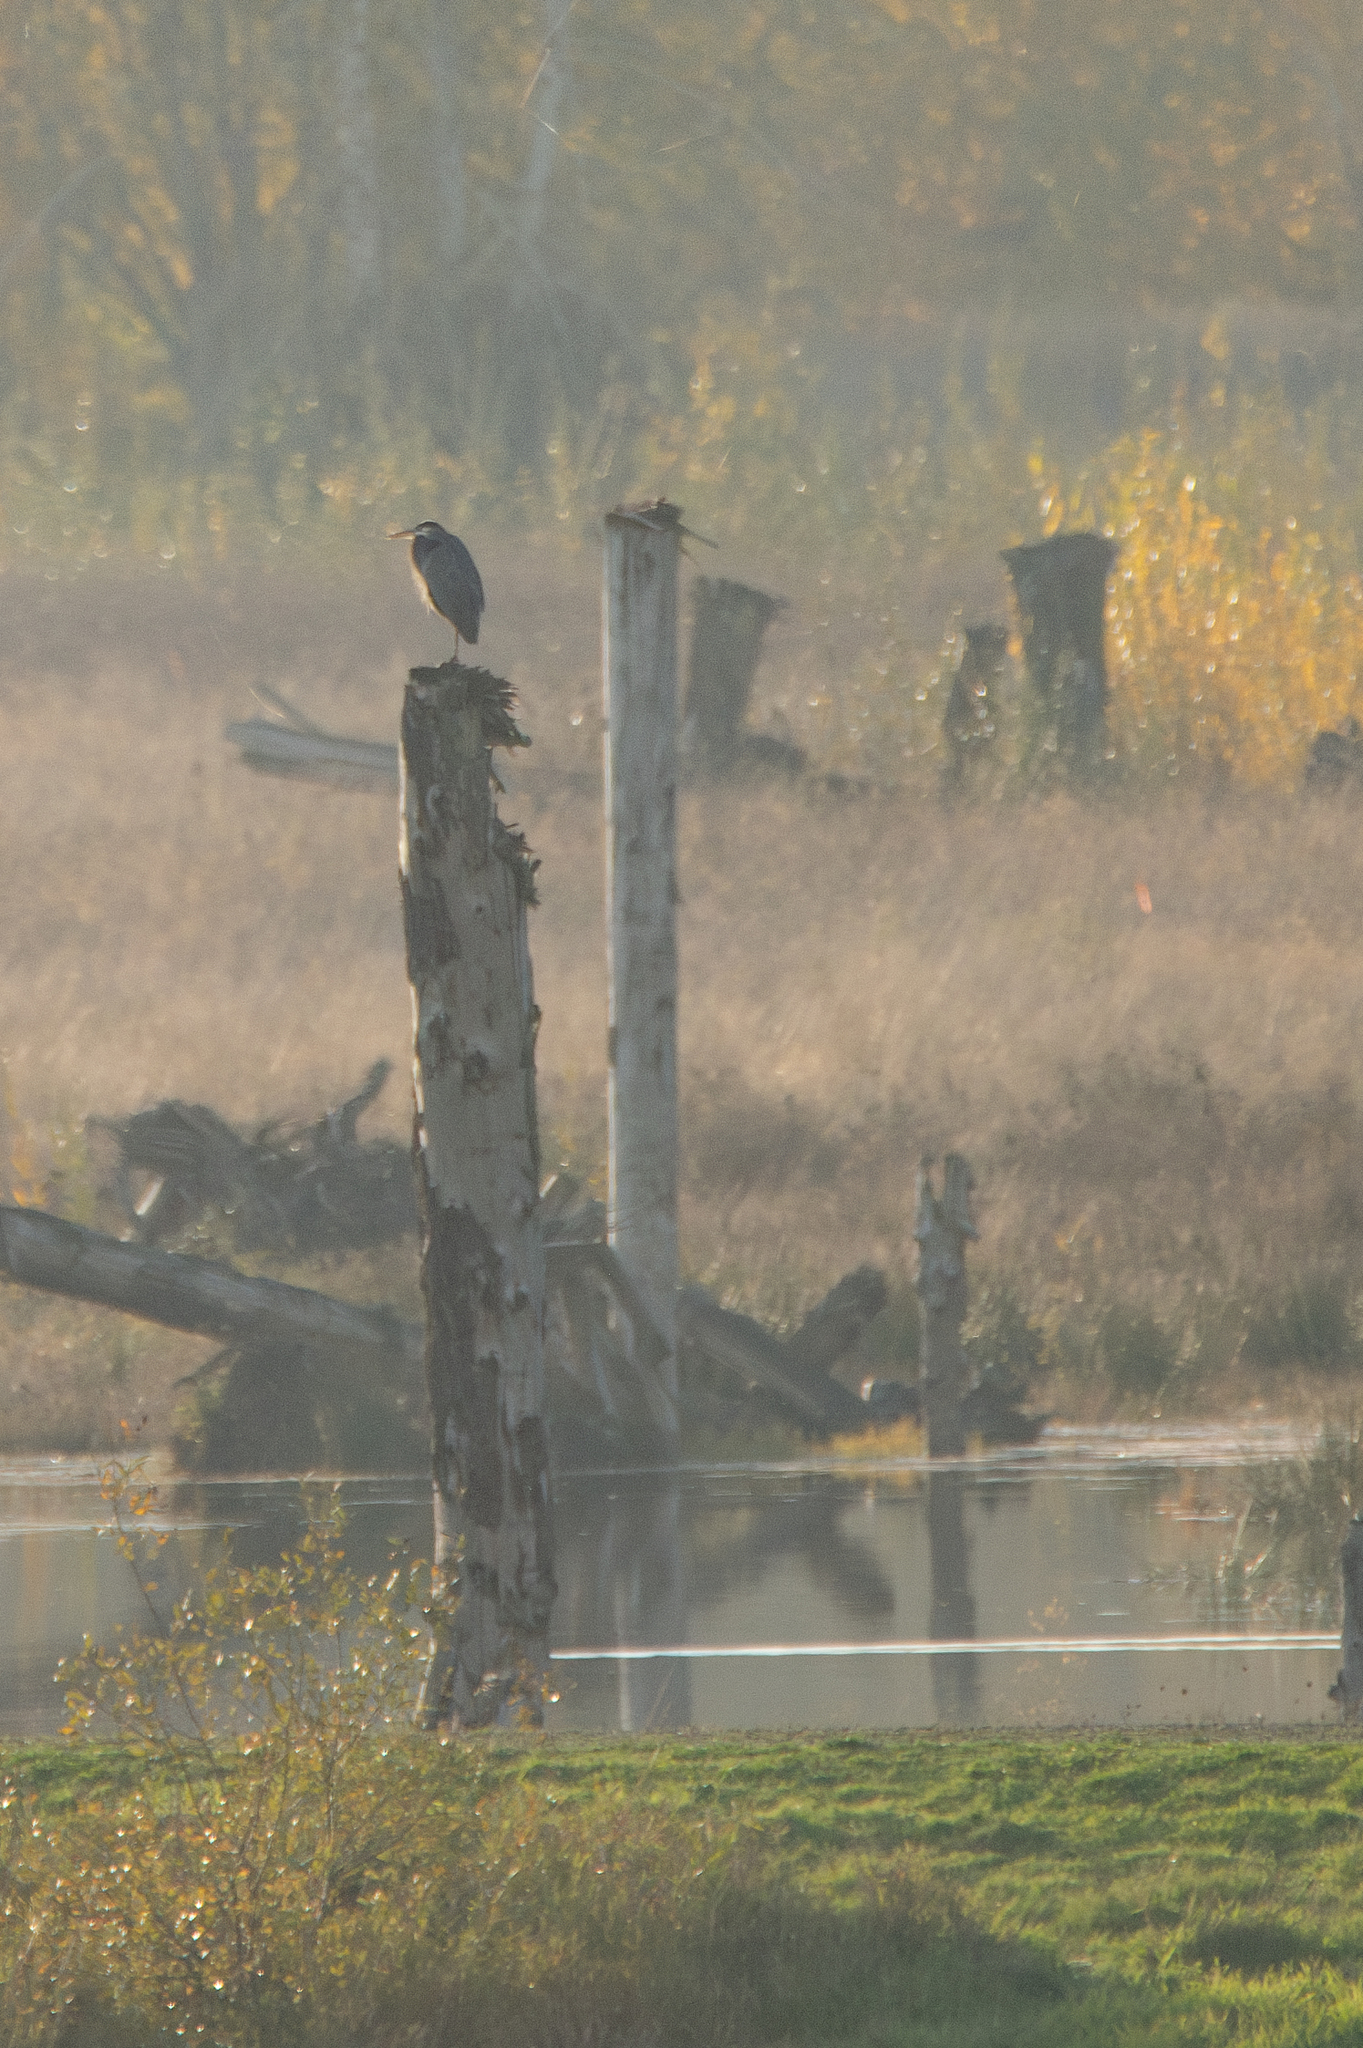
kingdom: Animalia
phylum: Chordata
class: Aves
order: Pelecaniformes
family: Ardeidae
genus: Ardea
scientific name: Ardea herodias
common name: Great blue heron
